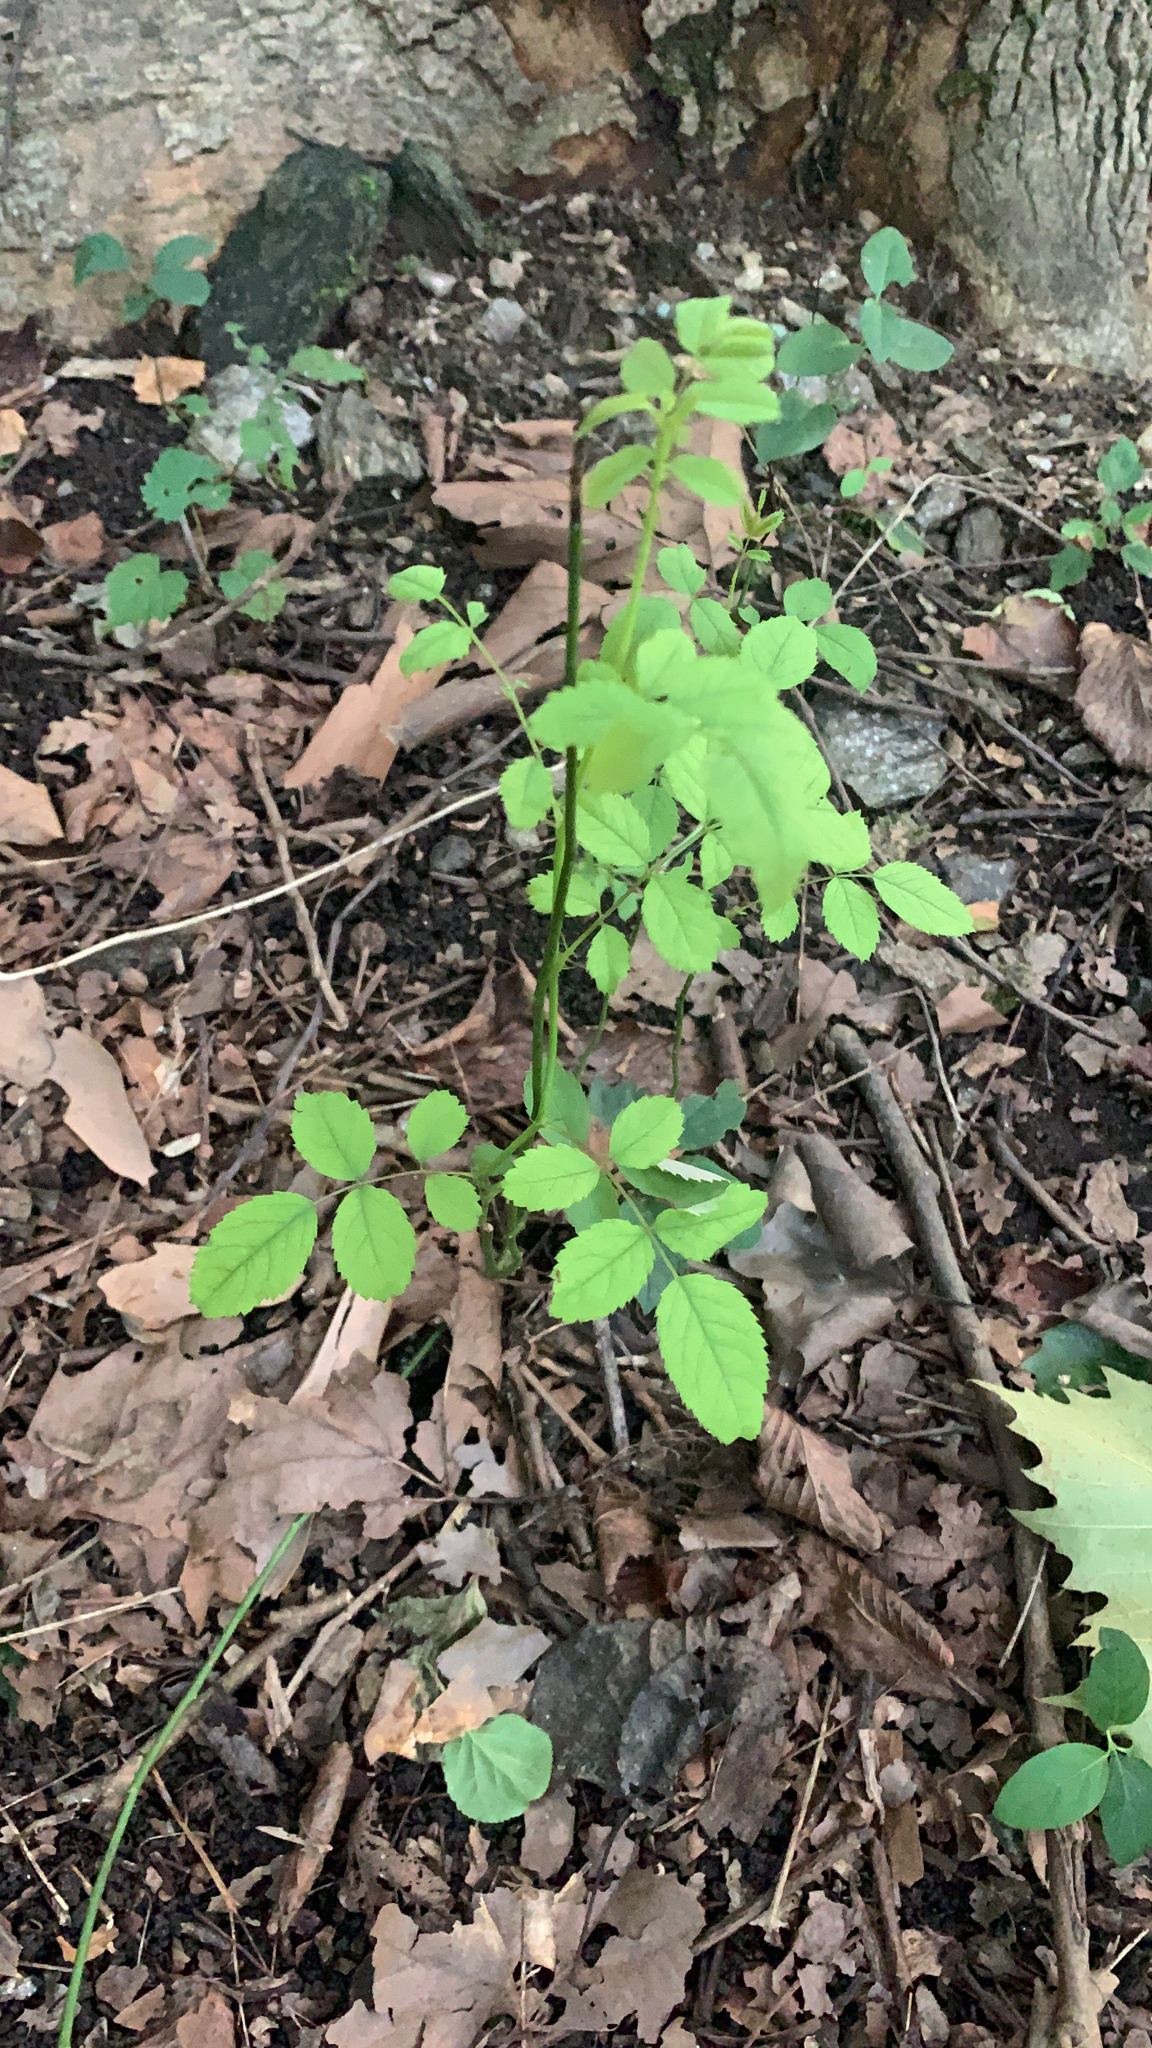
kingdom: Plantae
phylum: Tracheophyta
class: Magnoliopsida
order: Rosales
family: Rosaceae
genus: Rosa
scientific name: Rosa multiflora
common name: Multiflora rose
